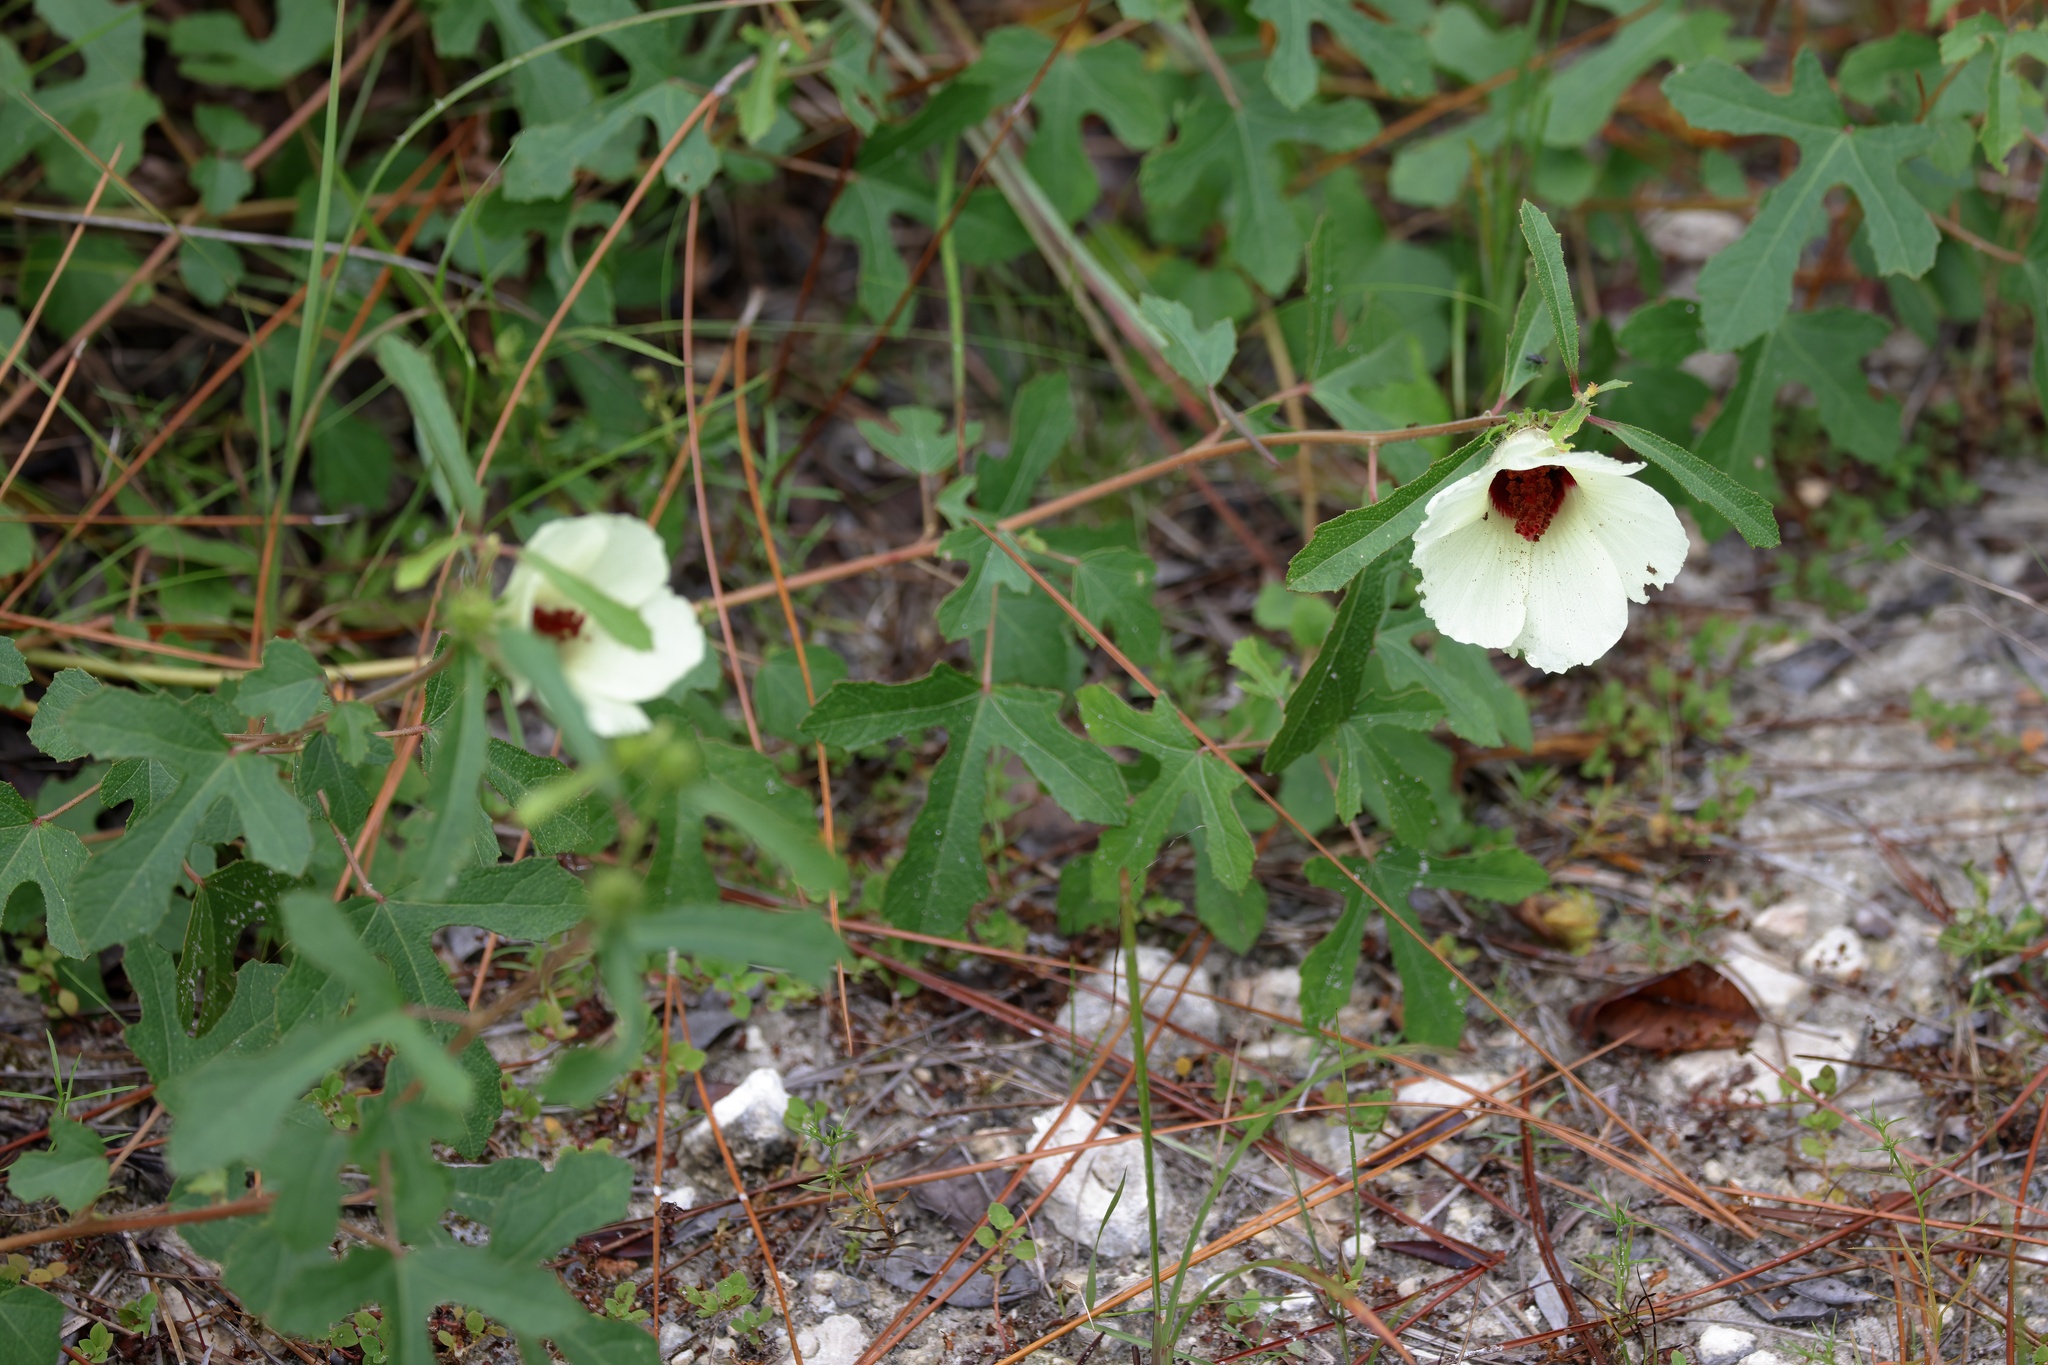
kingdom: Plantae
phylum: Tracheophyta
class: Magnoliopsida
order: Malvales
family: Malvaceae
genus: Hibiscus
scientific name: Hibiscus aculeatus
